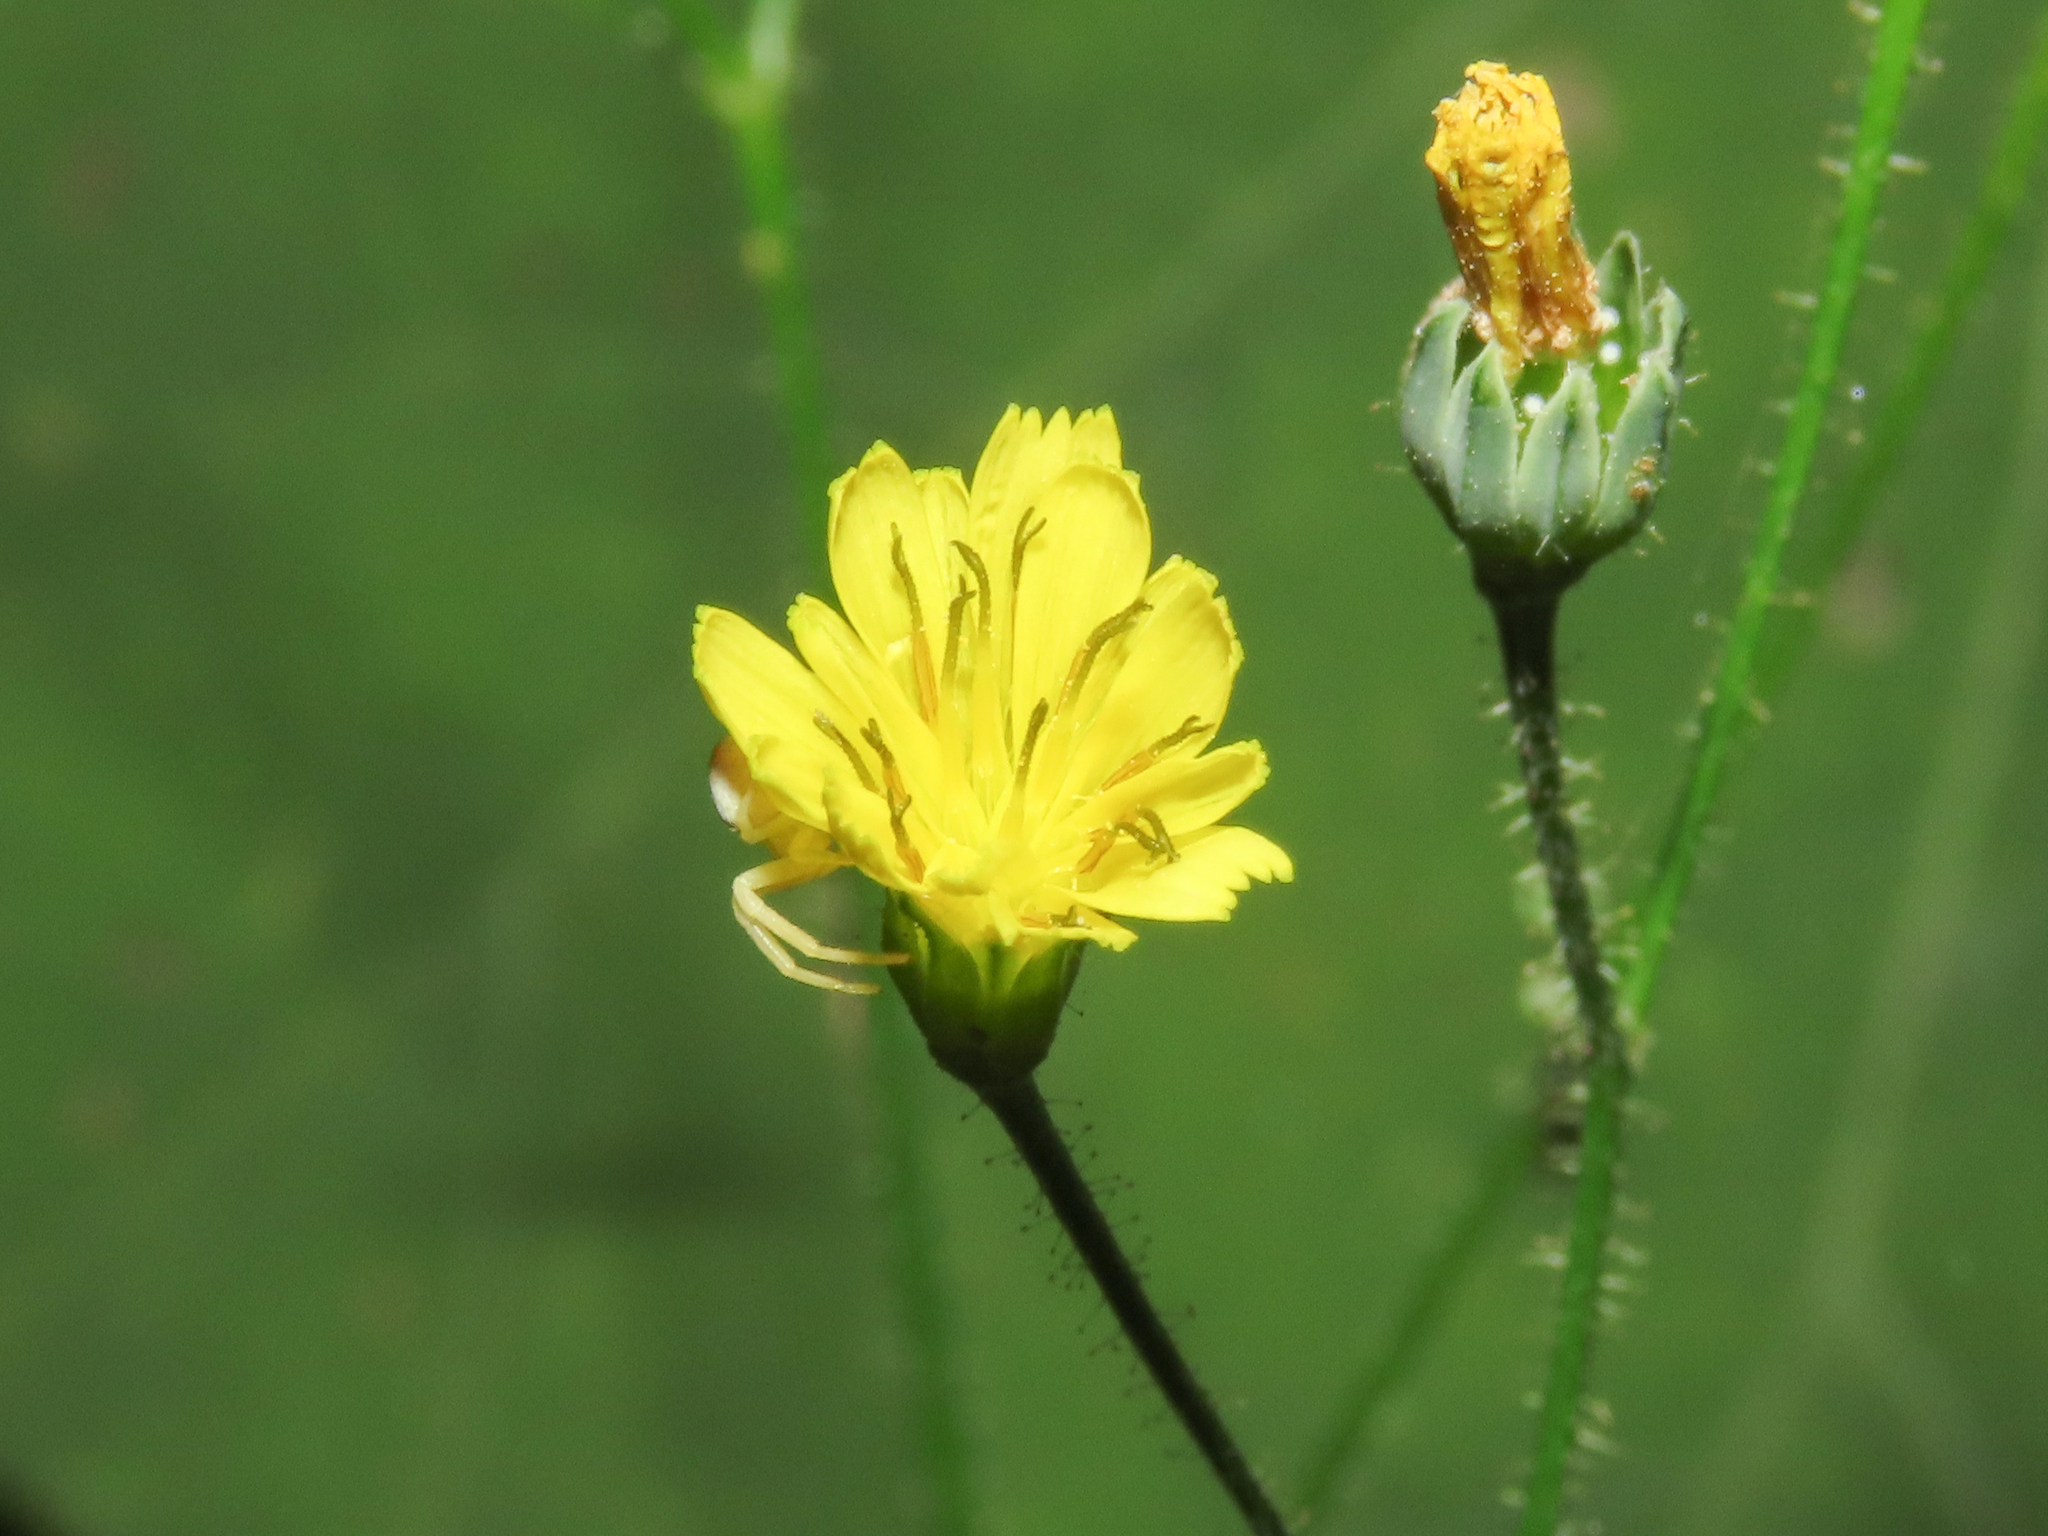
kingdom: Plantae
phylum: Tracheophyta
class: Magnoliopsida
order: Asterales
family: Asteraceae
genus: Lapsana
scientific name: Lapsana communis
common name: Nipplewort
